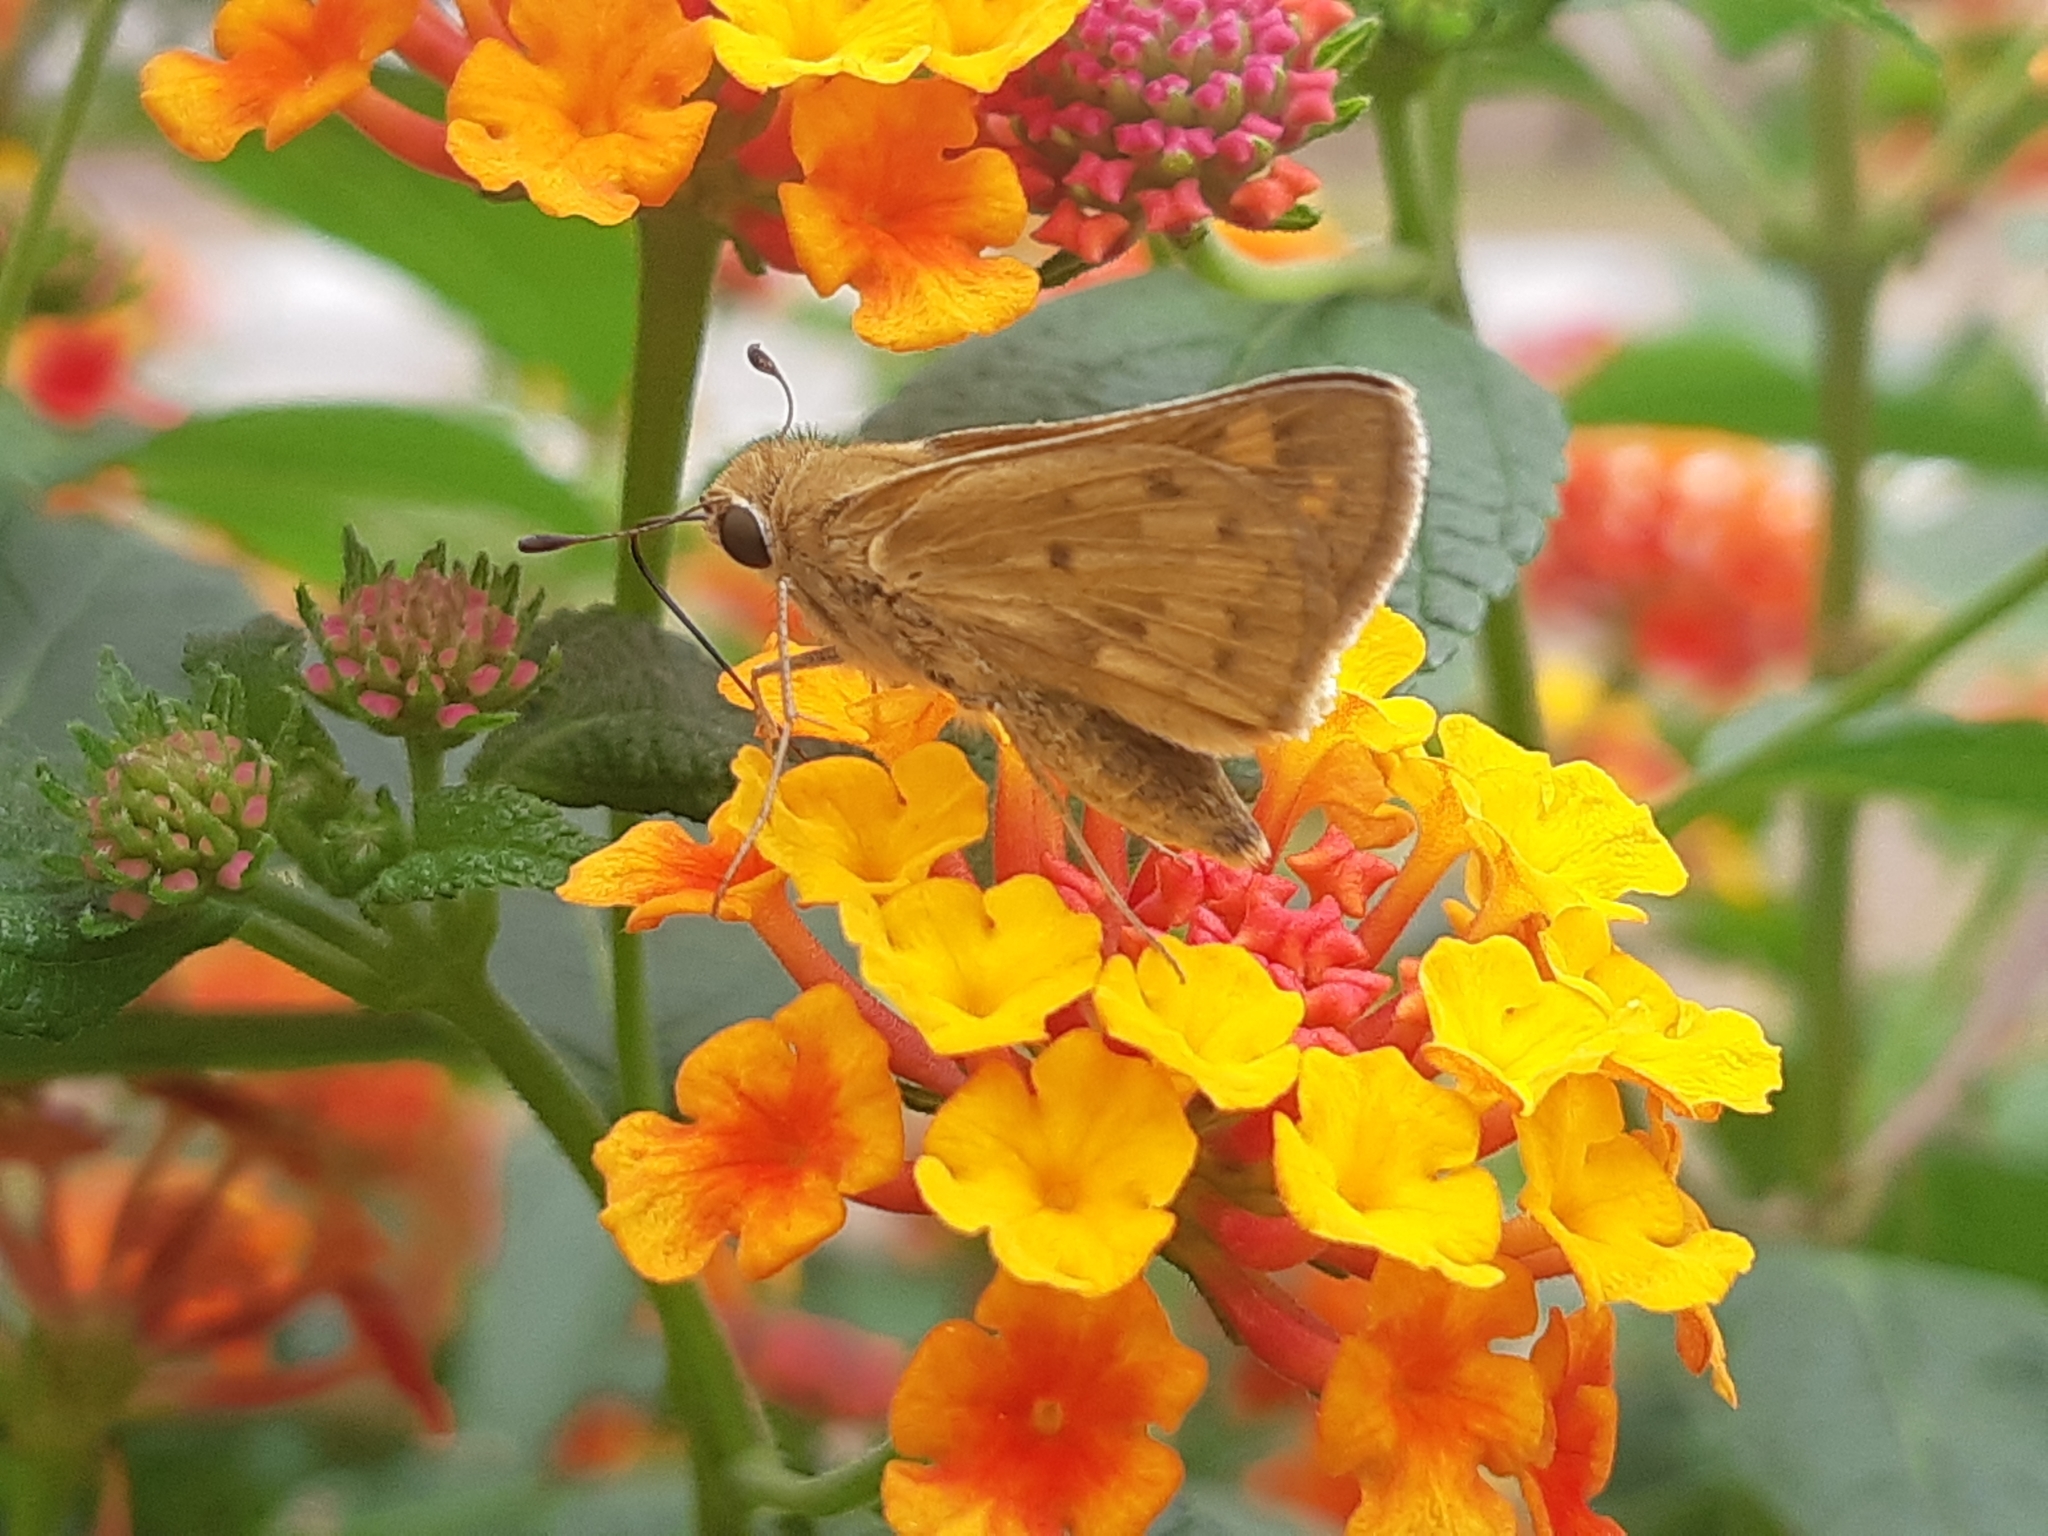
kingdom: Animalia
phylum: Arthropoda
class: Insecta
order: Lepidoptera
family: Hesperiidae
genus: Hylephila
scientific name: Hylephila phyleus
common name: Fiery skipper
